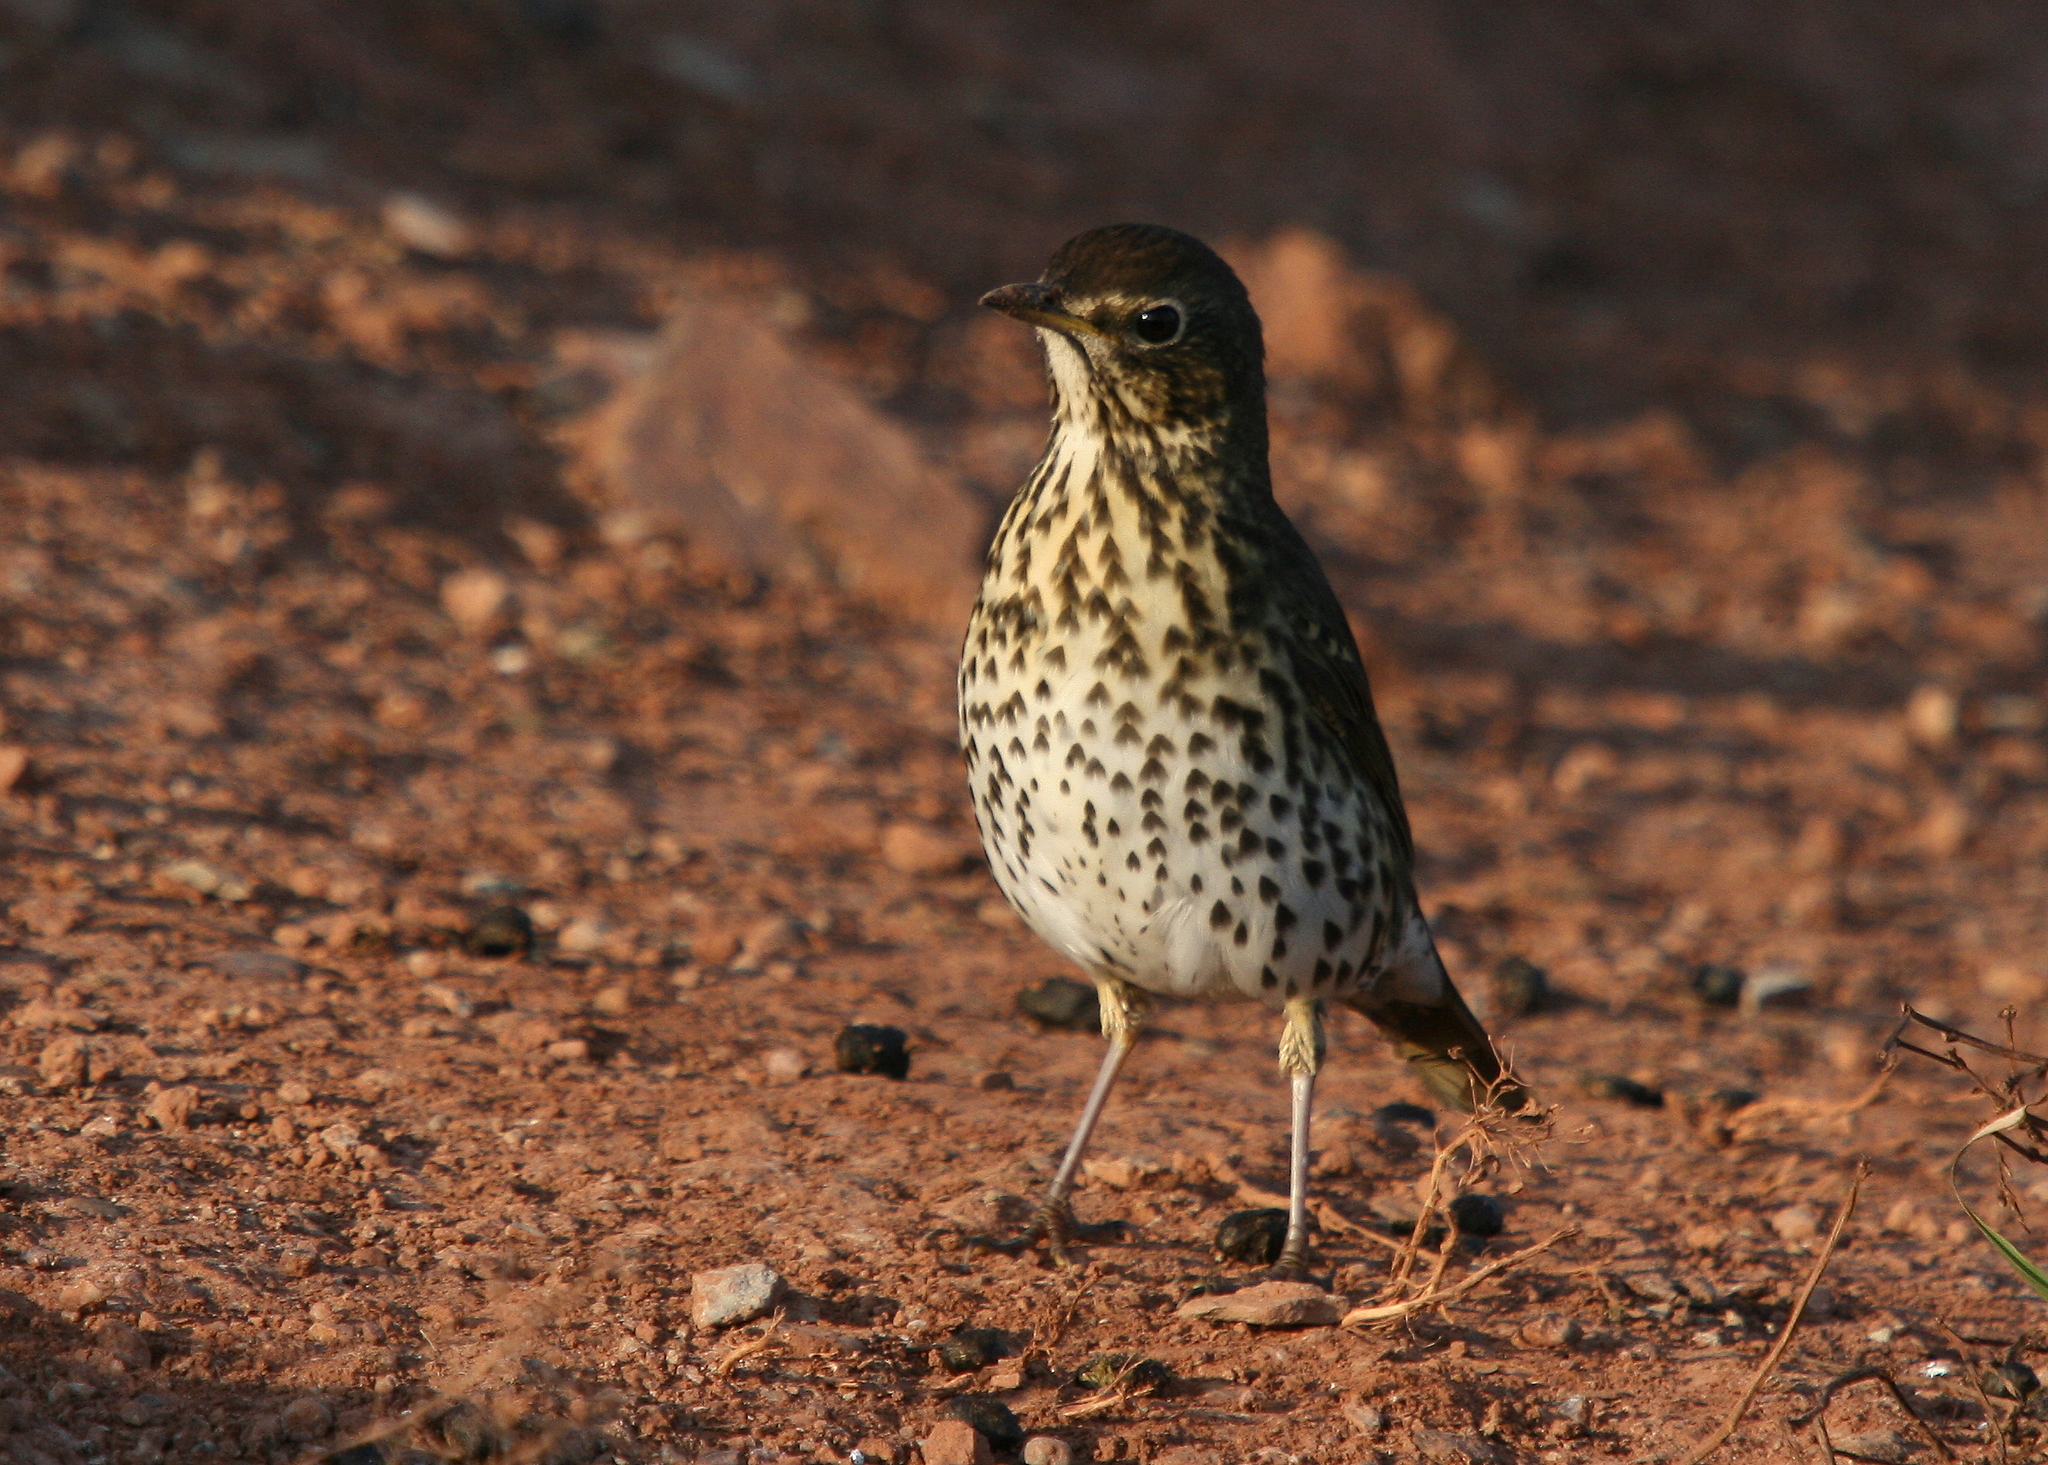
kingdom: Animalia
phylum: Chordata
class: Aves
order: Passeriformes
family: Turdidae
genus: Turdus
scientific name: Turdus philomelos
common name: Song thrush
